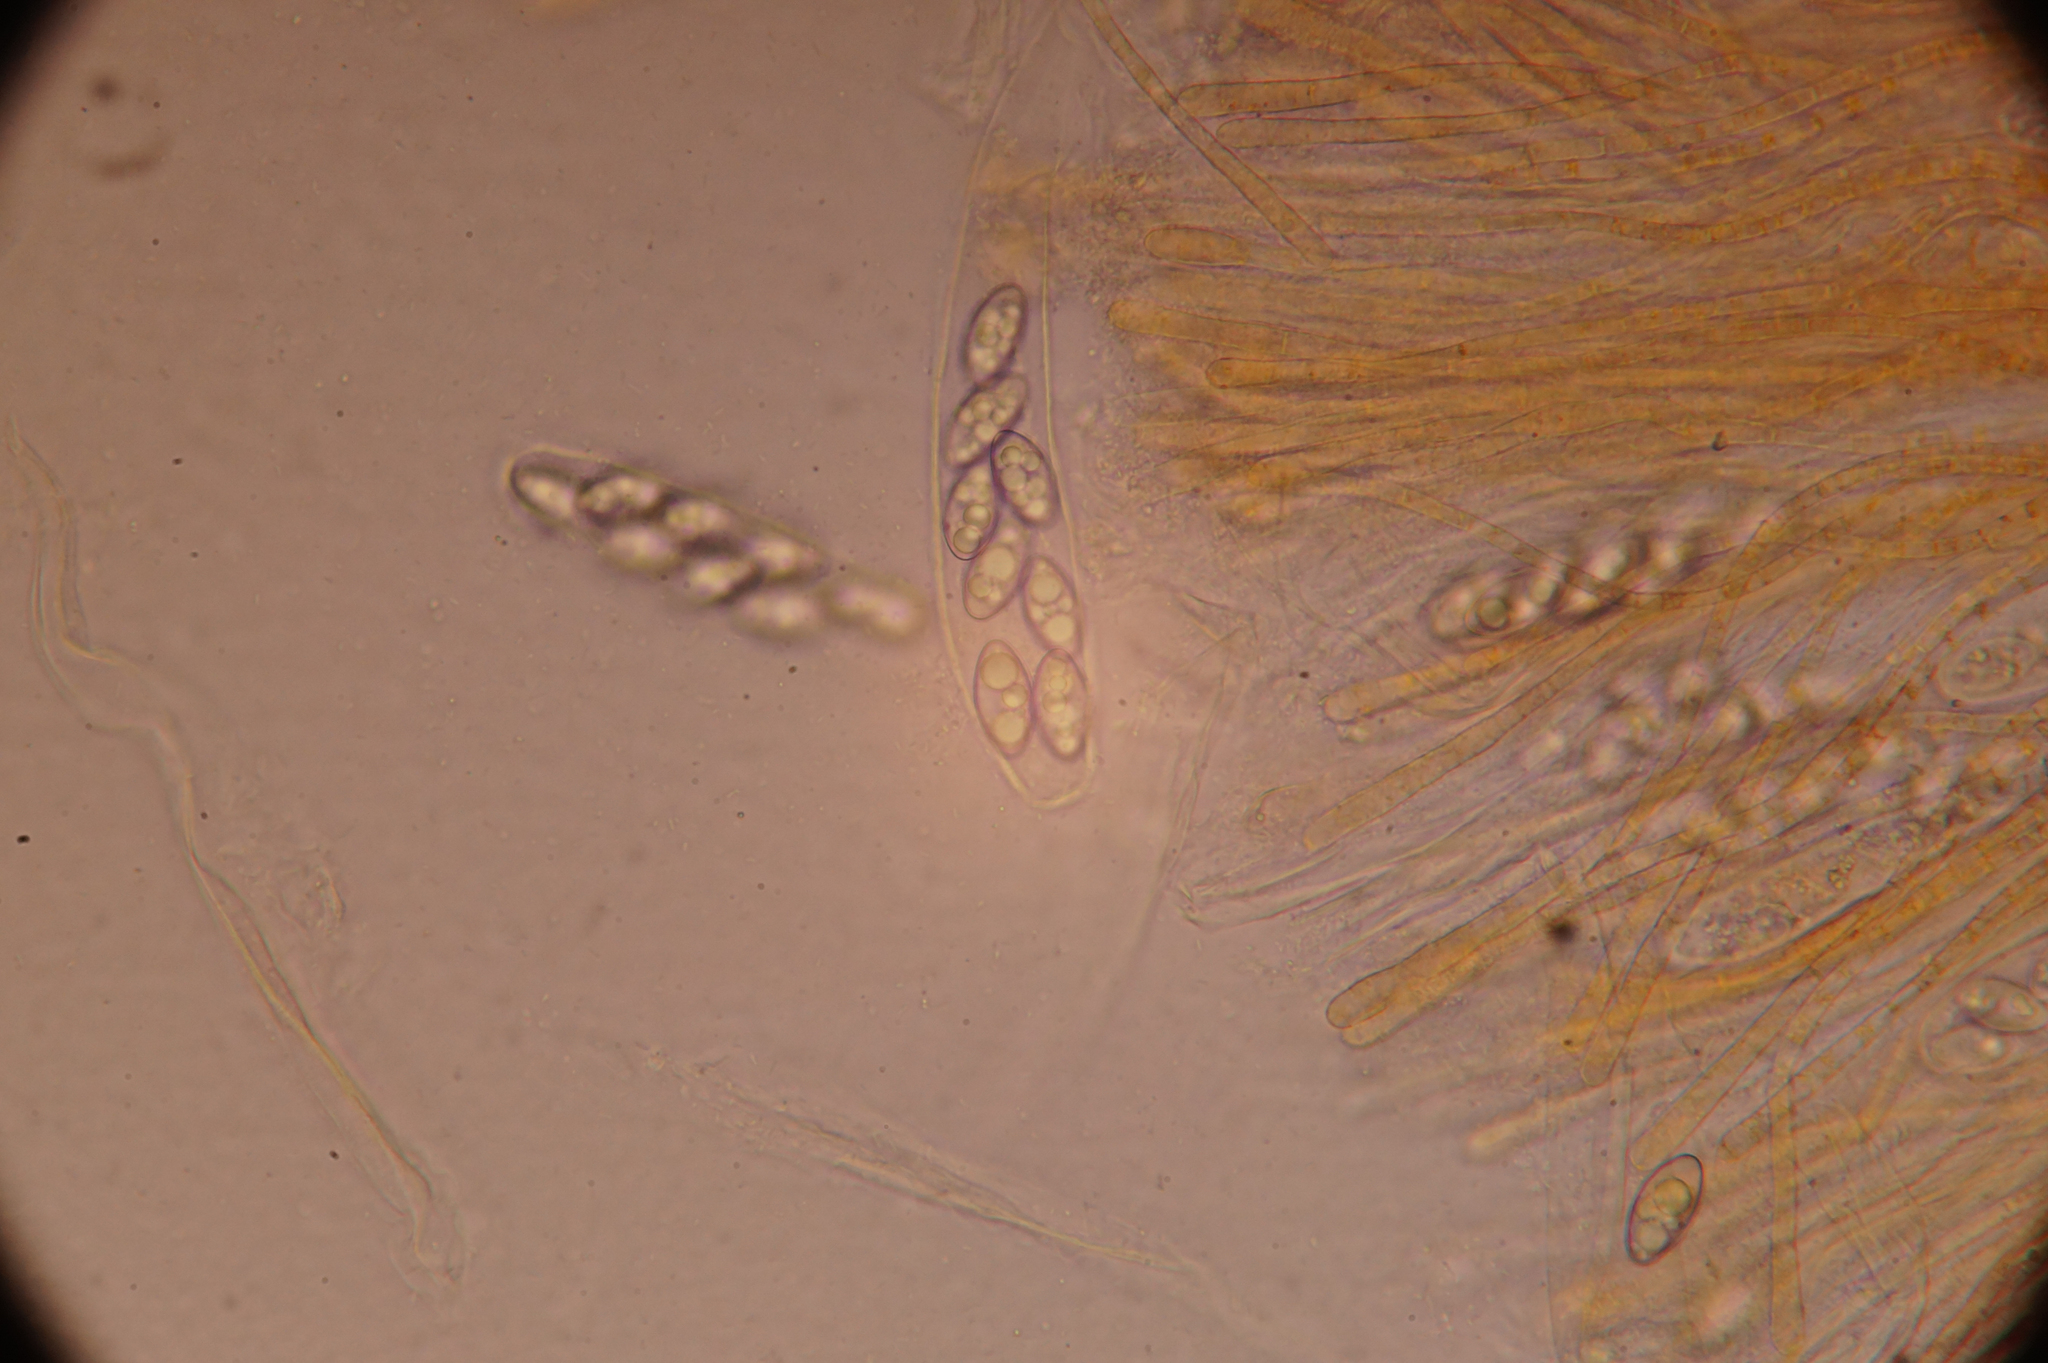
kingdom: Fungi
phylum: Ascomycota
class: Pezizomycetes
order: Pezizales
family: Pyronemataceae
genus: Octospora
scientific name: Octospora leucoloma
